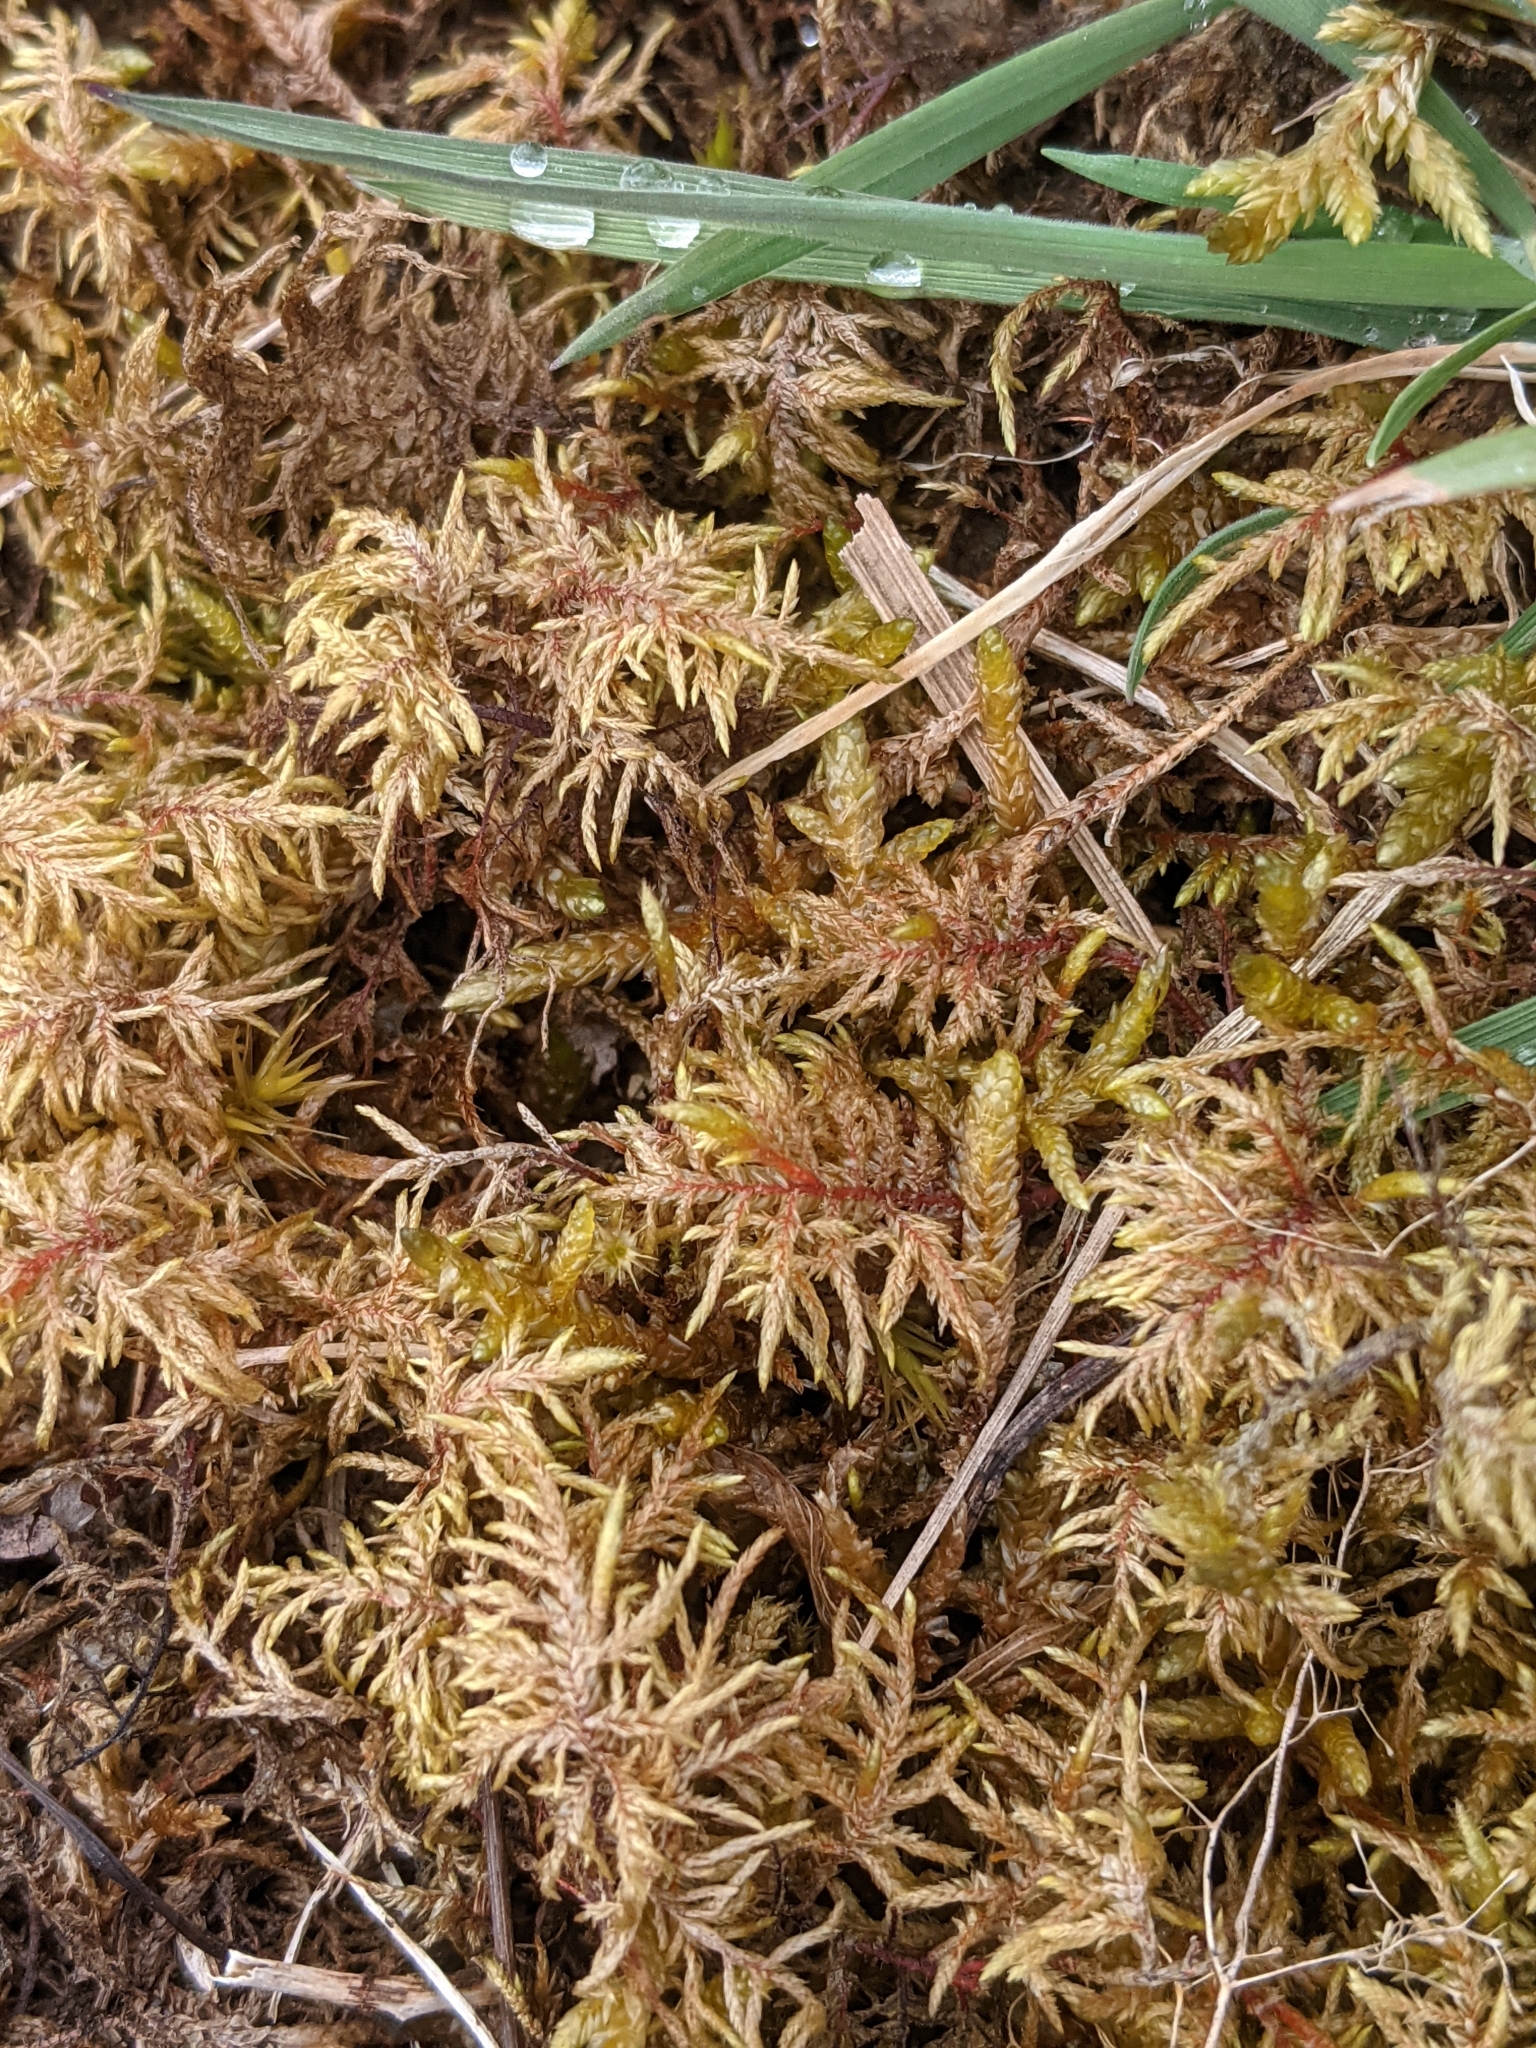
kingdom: Plantae
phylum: Bryophyta
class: Bryopsida
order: Hypnales
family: Hylocomiaceae
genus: Hylocomium
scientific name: Hylocomium splendens
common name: Stairstep moss
